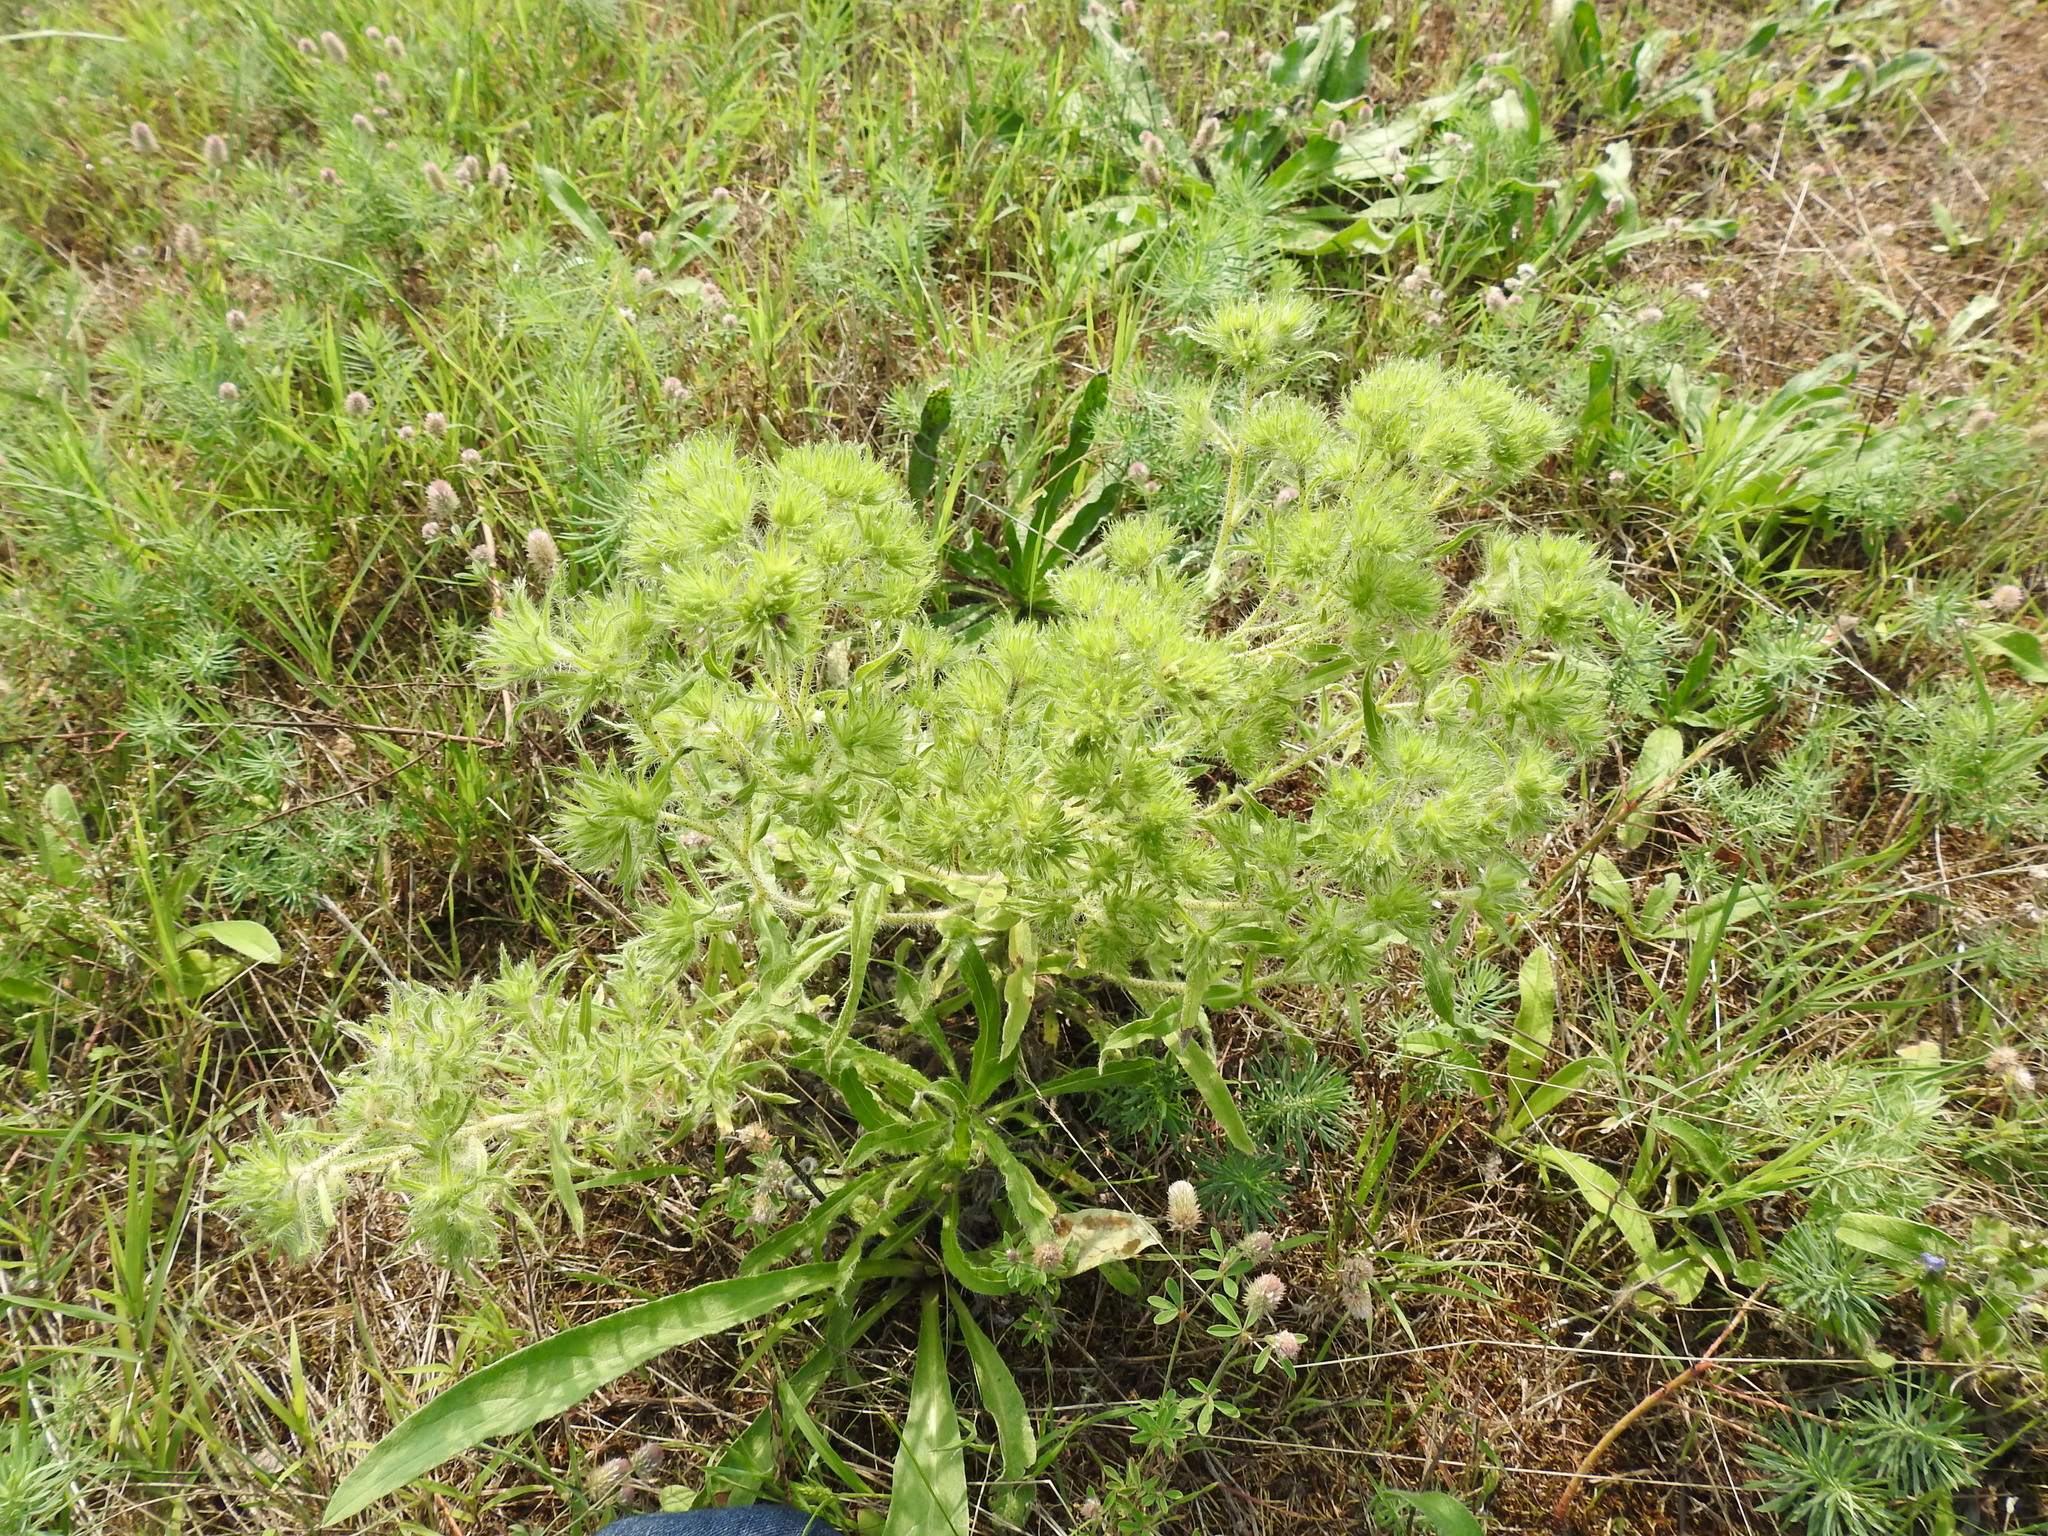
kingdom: Animalia
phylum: Arthropoda
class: Arachnida
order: Trombidiformes
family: Eriophyidae
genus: Aceria
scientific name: Aceria echii
